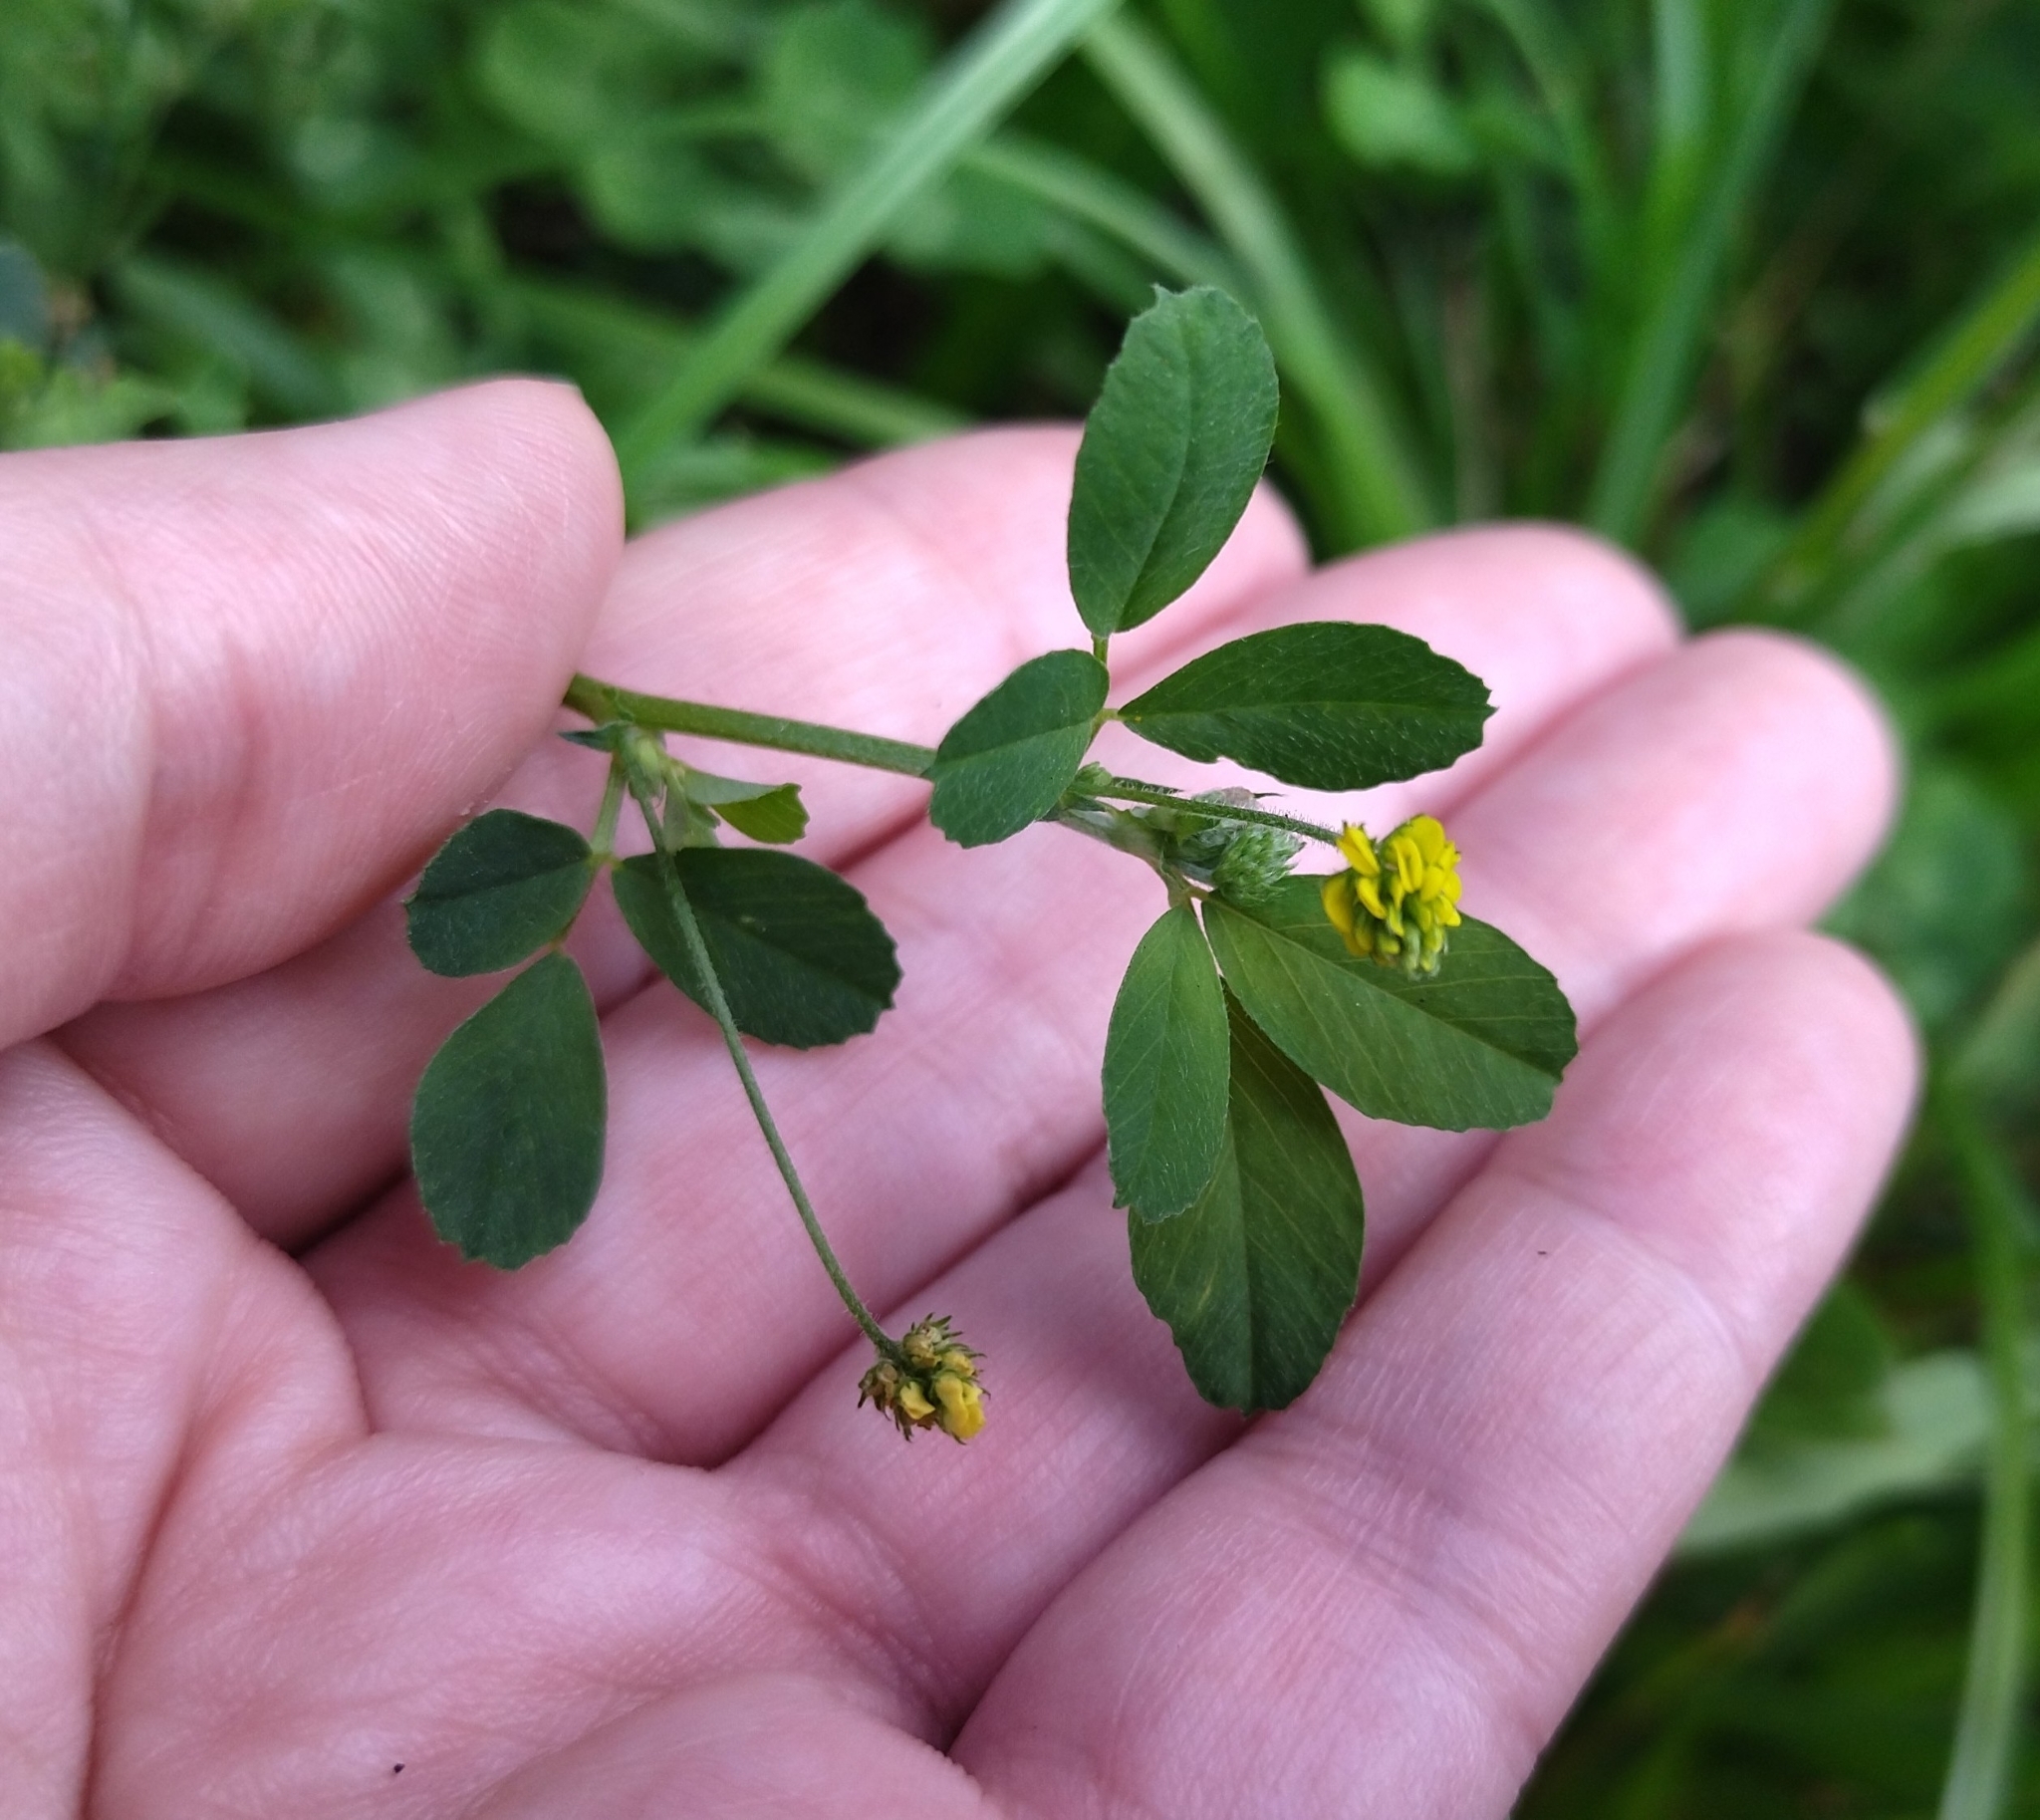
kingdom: Plantae
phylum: Tracheophyta
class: Magnoliopsida
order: Fabales
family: Fabaceae
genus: Medicago
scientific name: Medicago lupulina
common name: Black medick
